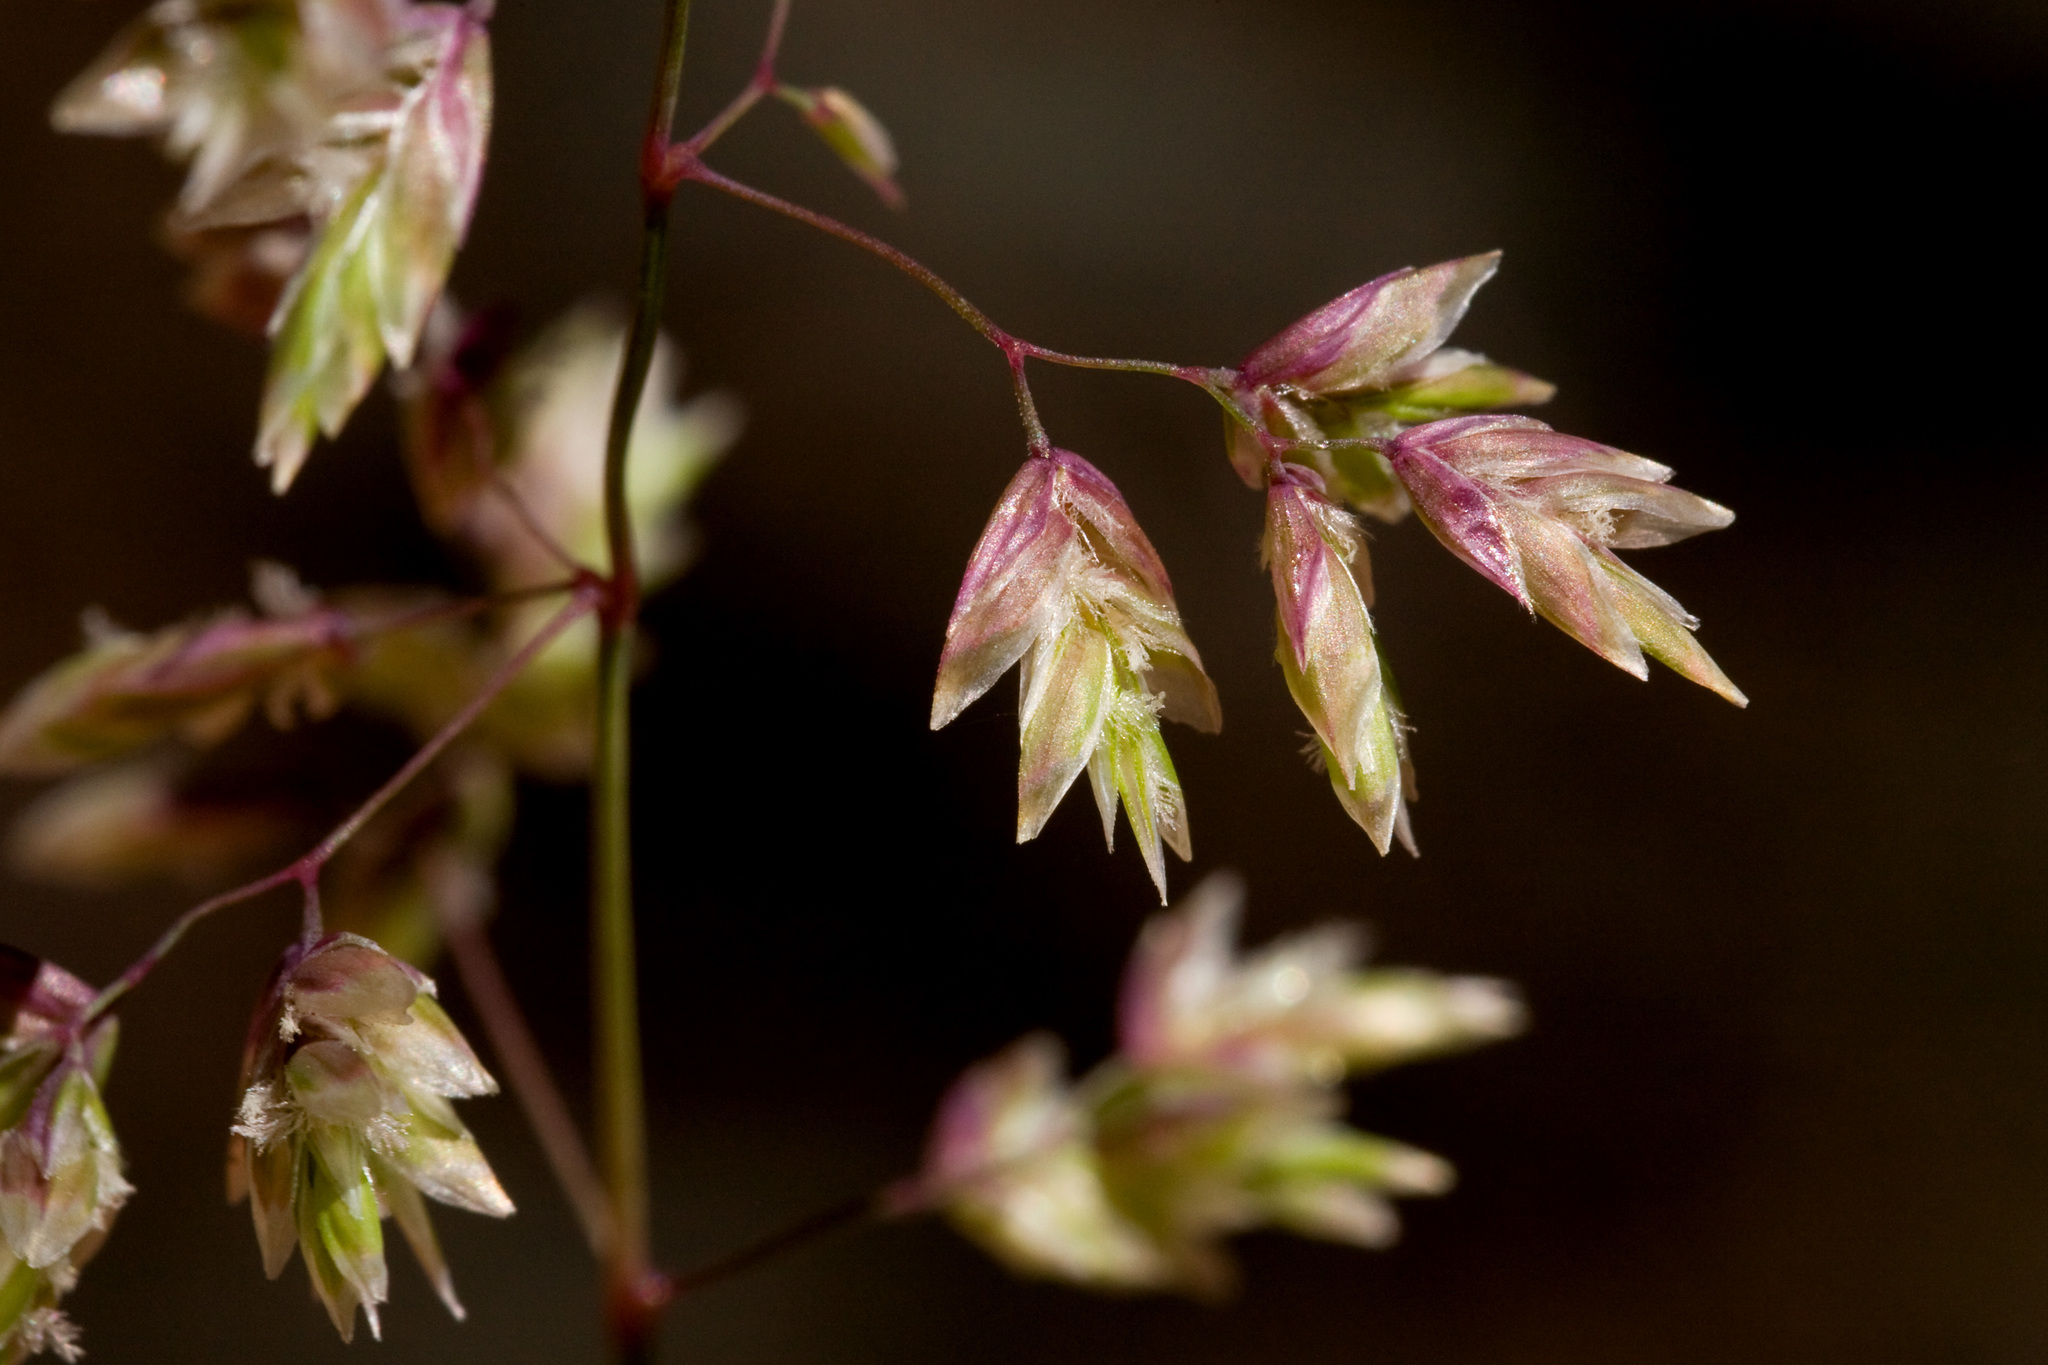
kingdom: Plantae
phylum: Tracheophyta
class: Liliopsida
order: Poales
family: Poaceae
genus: Poa
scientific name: Poa fendleriana
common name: Mutton bluegrass
